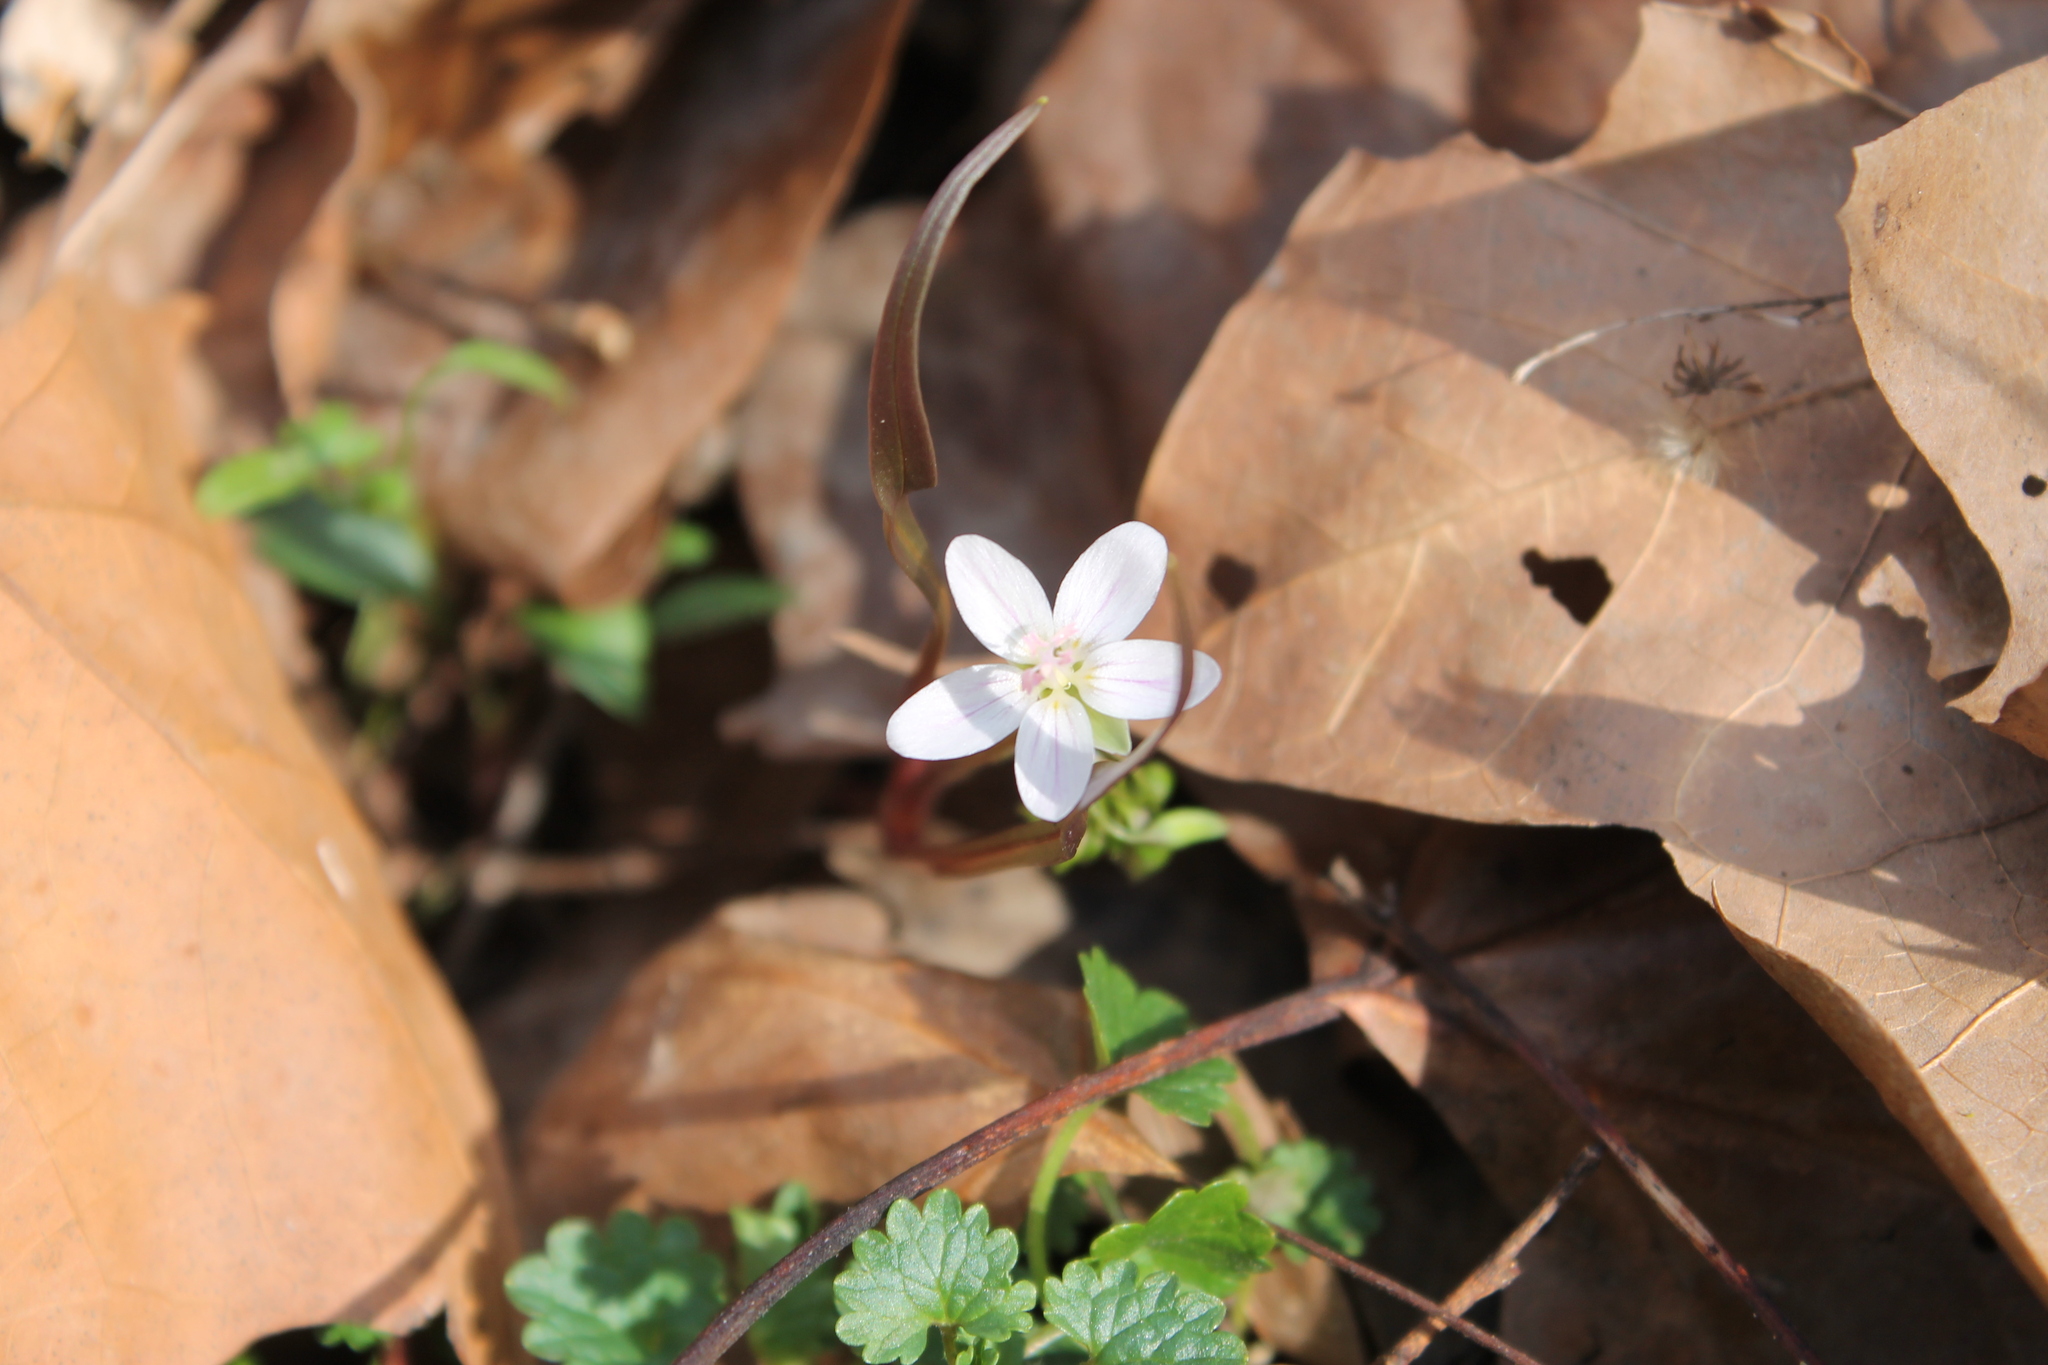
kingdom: Plantae
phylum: Tracheophyta
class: Magnoliopsida
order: Caryophyllales
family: Montiaceae
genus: Claytonia
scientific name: Claytonia virginica
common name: Virginia springbeauty
